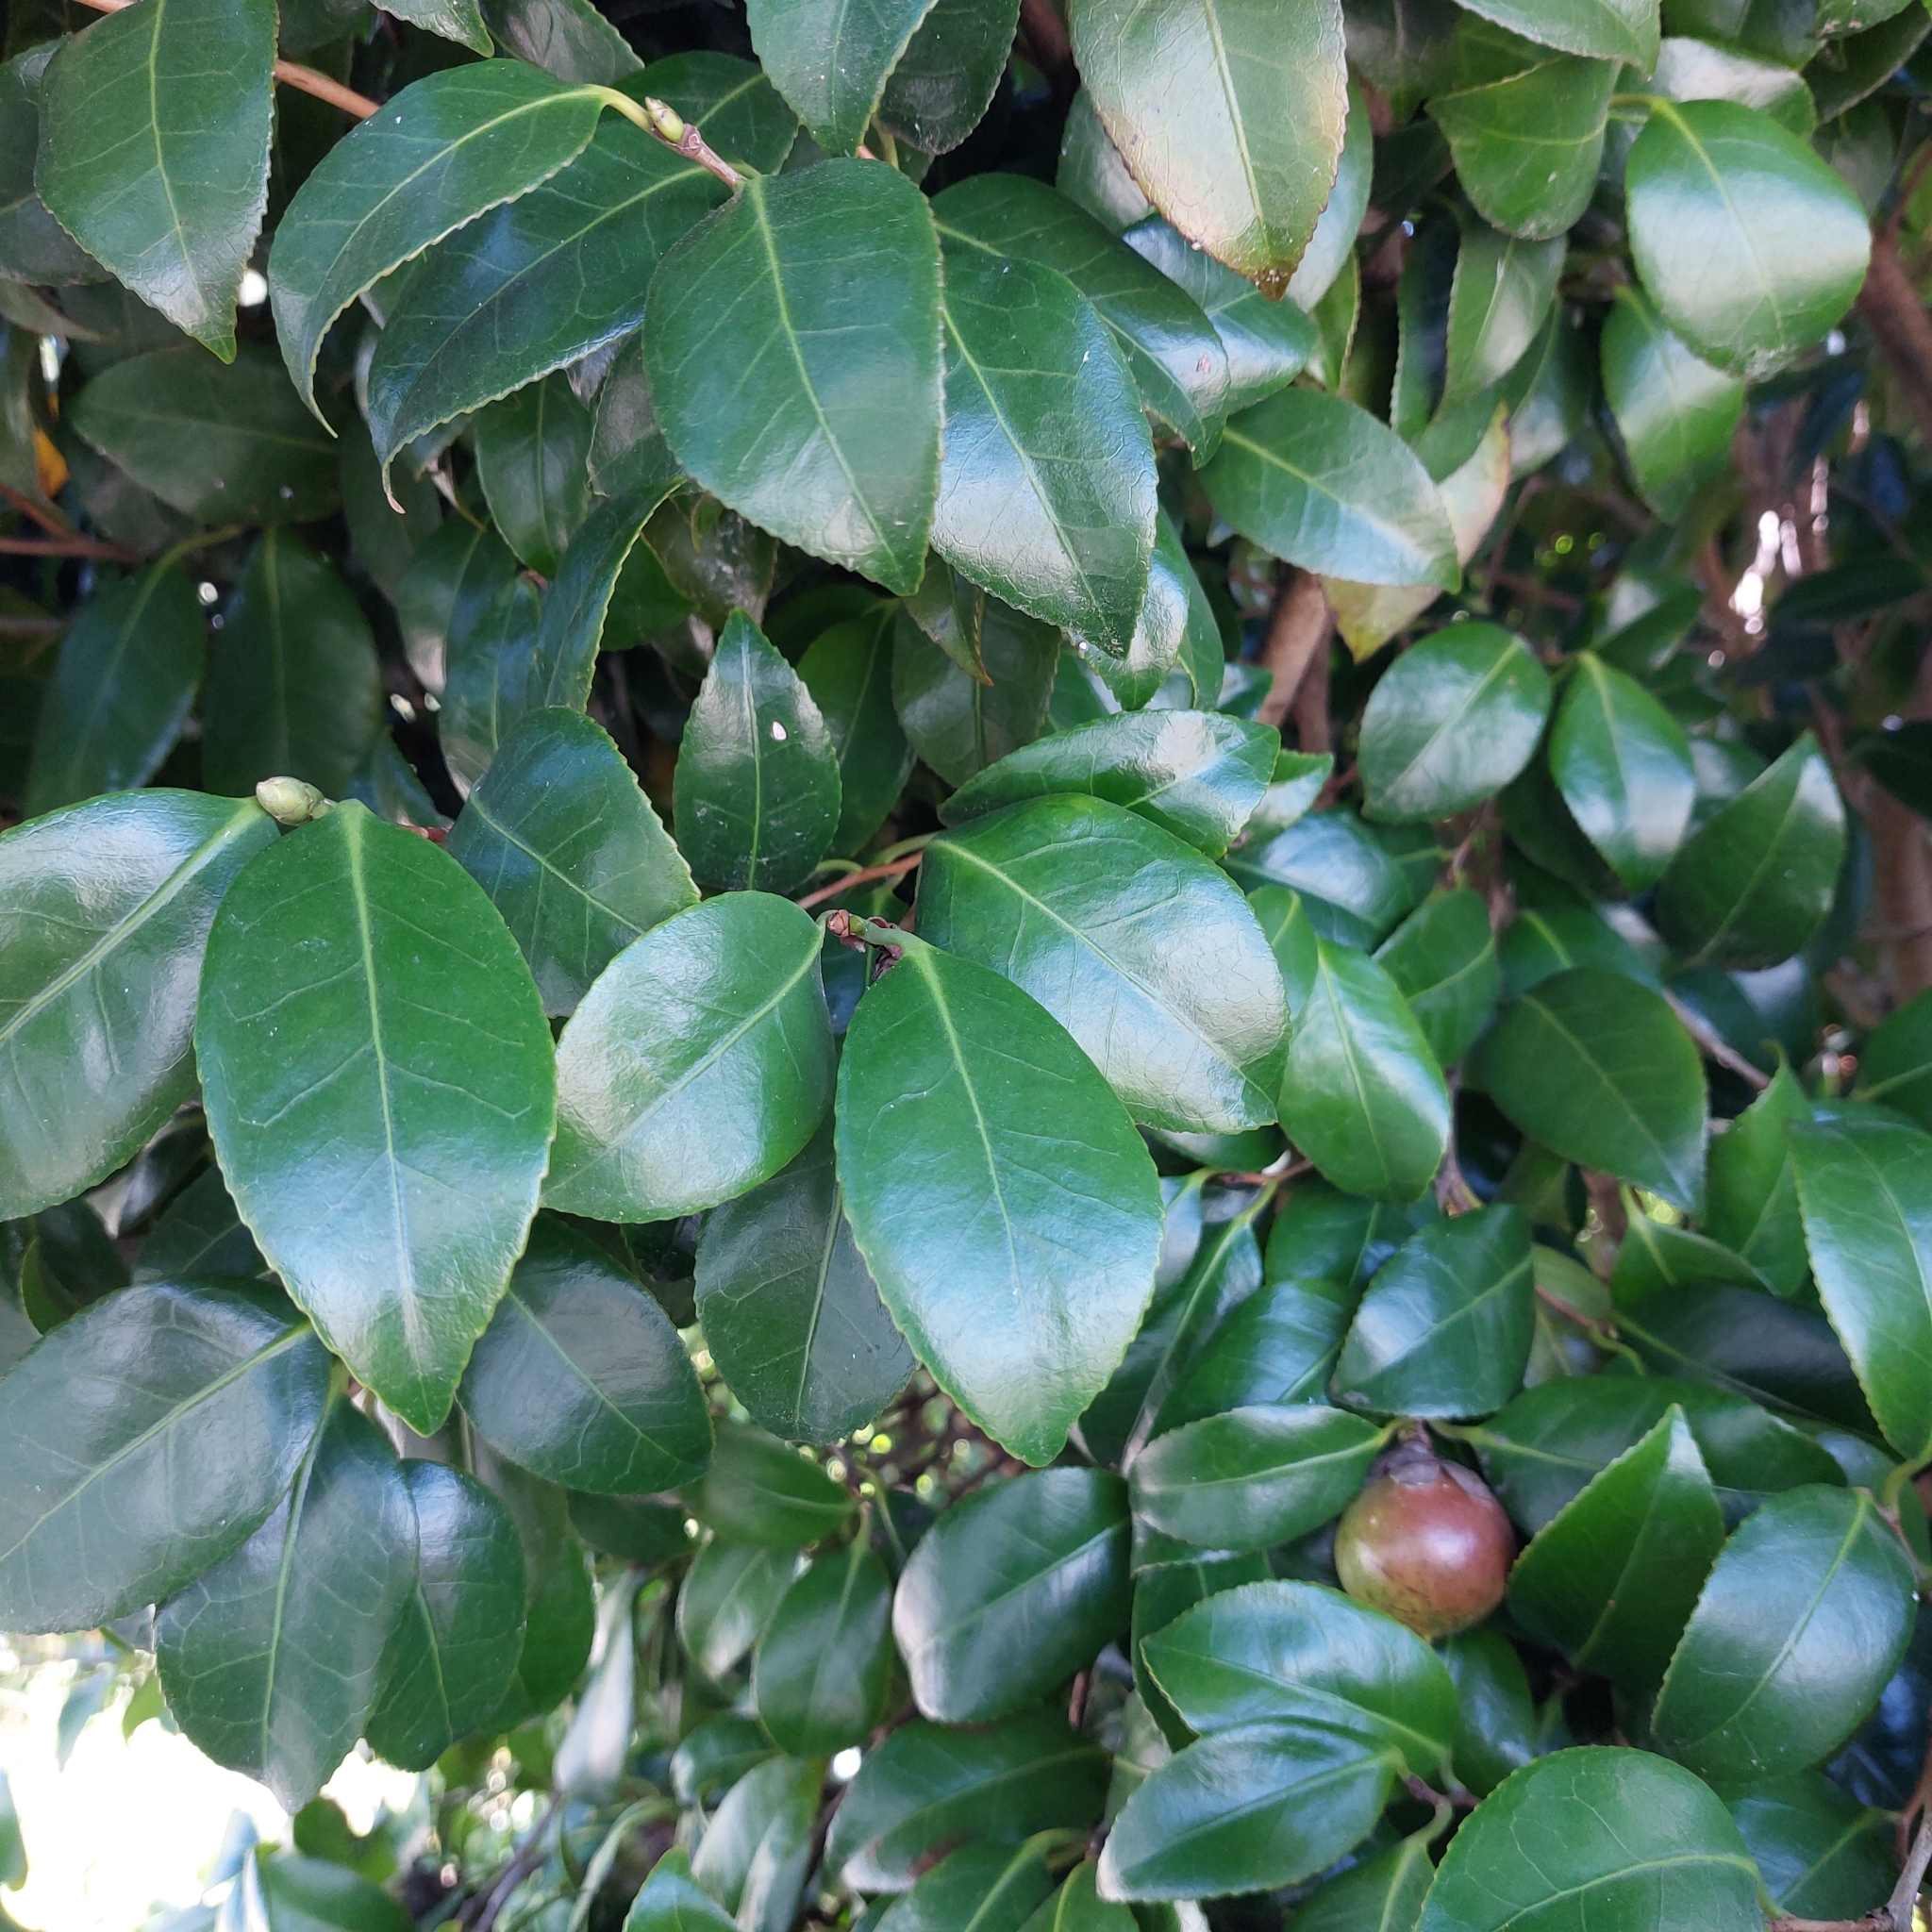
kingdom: Plantae
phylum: Tracheophyta
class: Magnoliopsida
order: Ericales
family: Theaceae
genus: Camellia
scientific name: Camellia japonica
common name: Camellia
